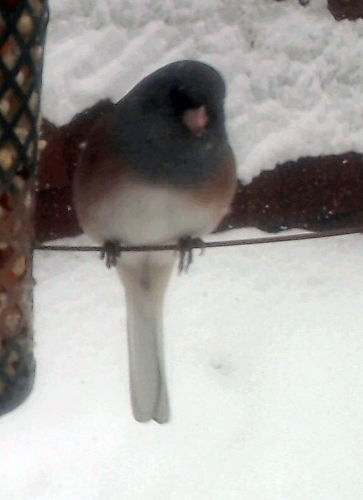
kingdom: Animalia
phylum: Chordata
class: Aves
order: Passeriformes
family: Passerellidae
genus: Junco
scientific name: Junco hyemalis
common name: Dark-eyed junco
